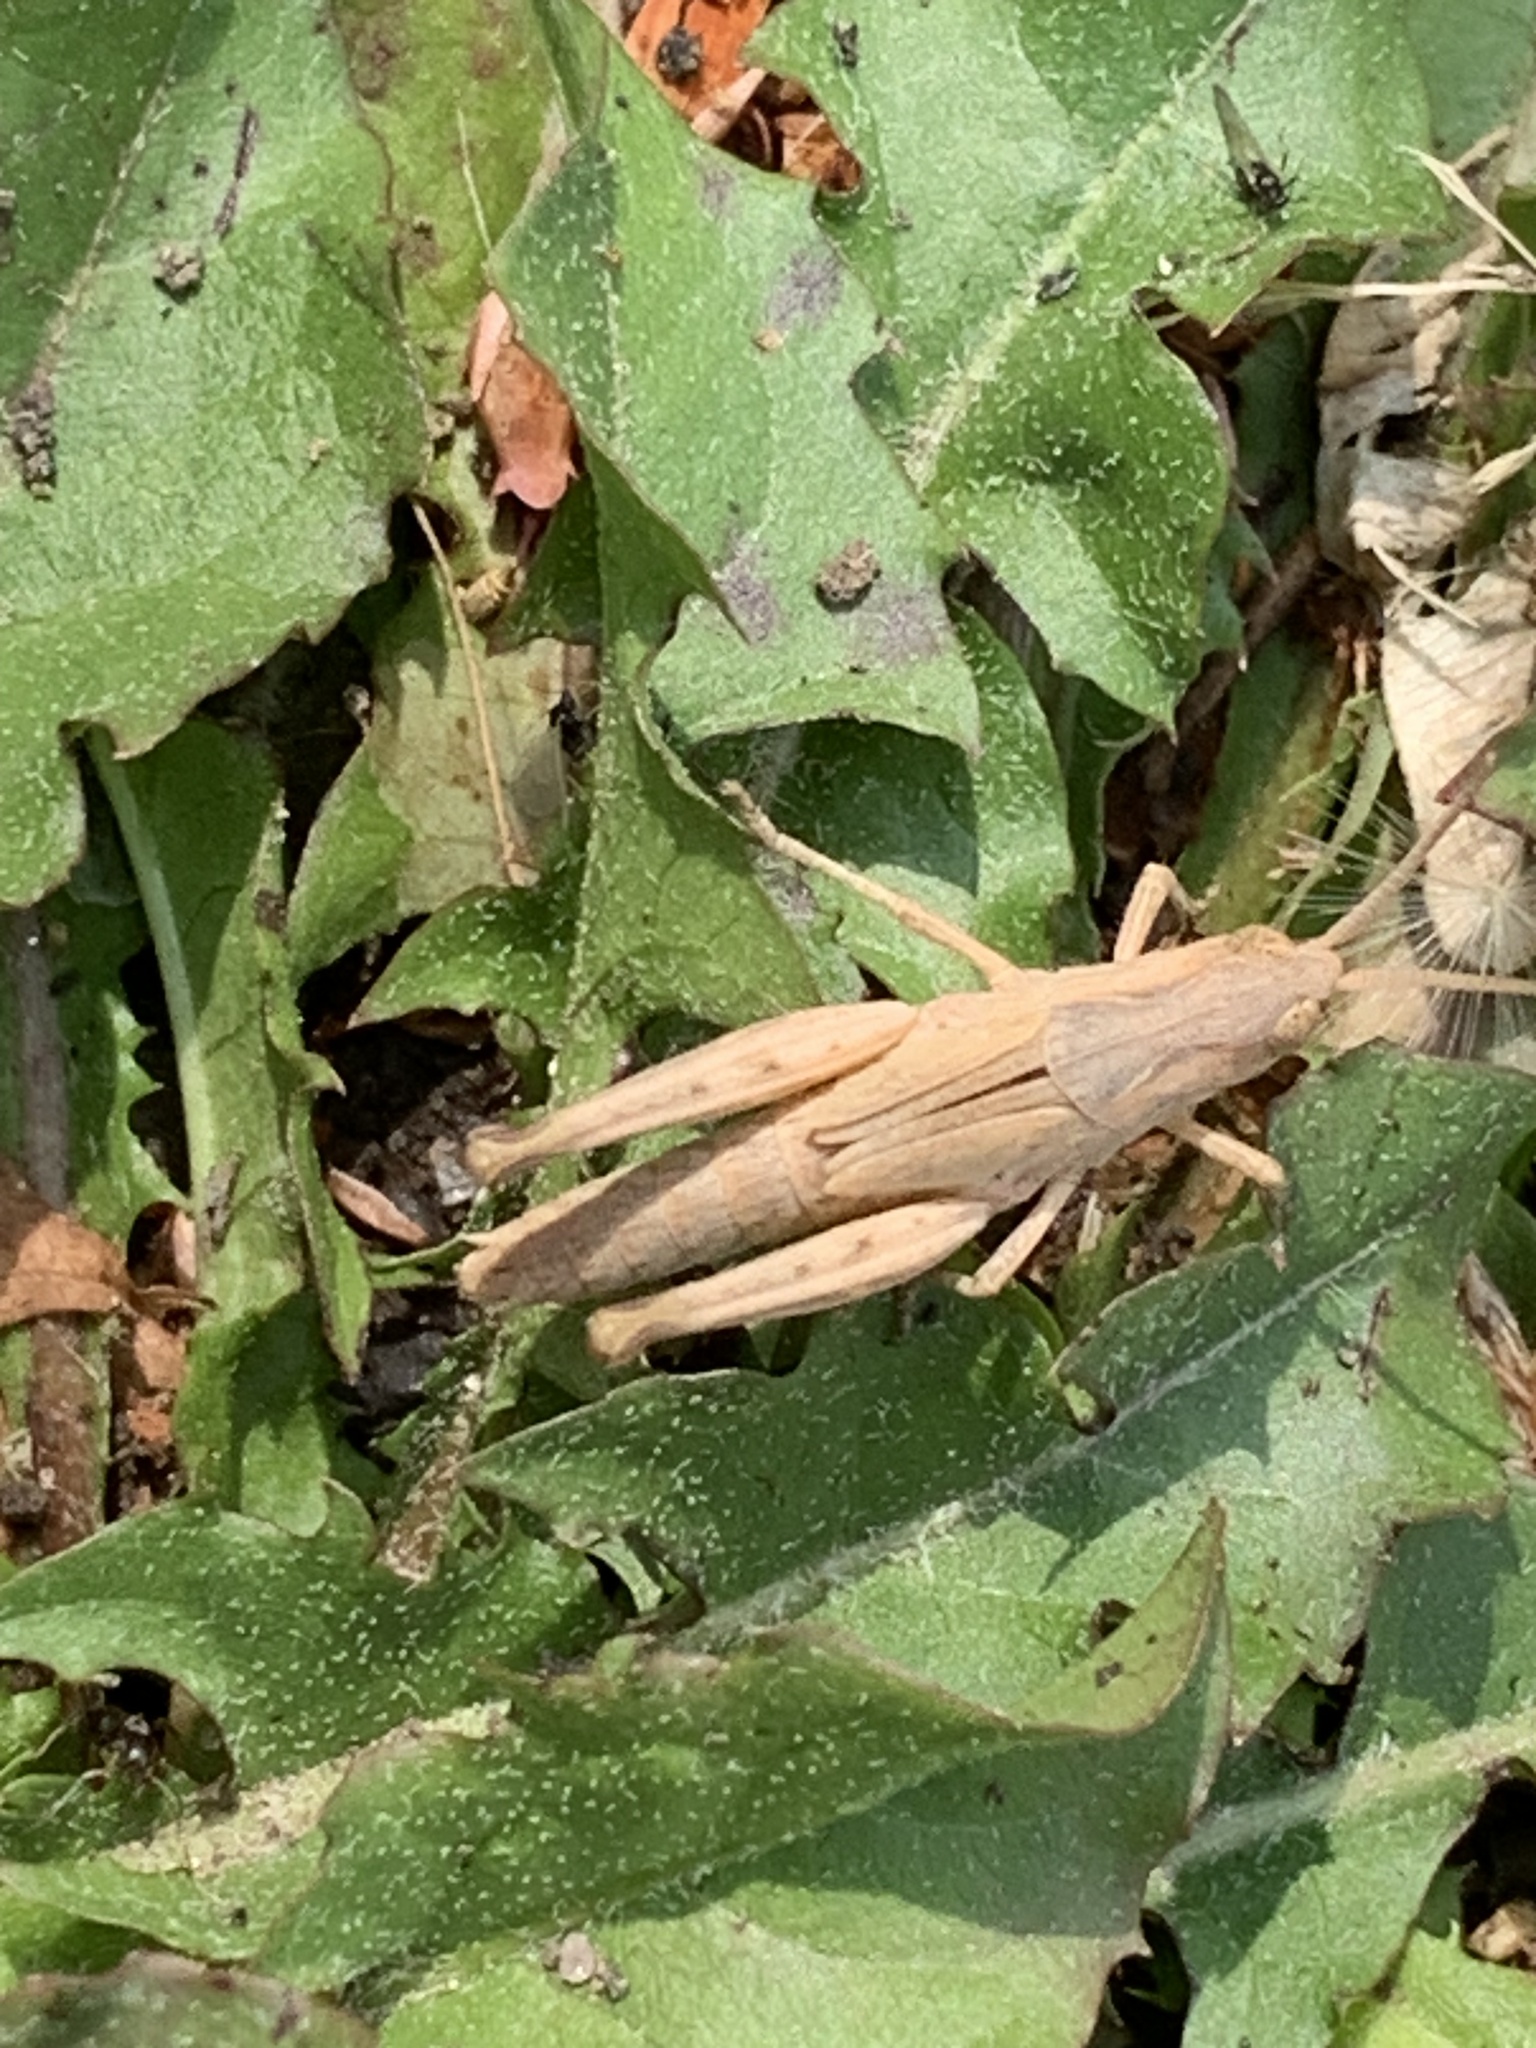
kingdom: Animalia
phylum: Arthropoda
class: Insecta
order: Orthoptera
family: Acrididae
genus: Chorthippus
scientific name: Chorthippus brunneus
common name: Field grasshopper
